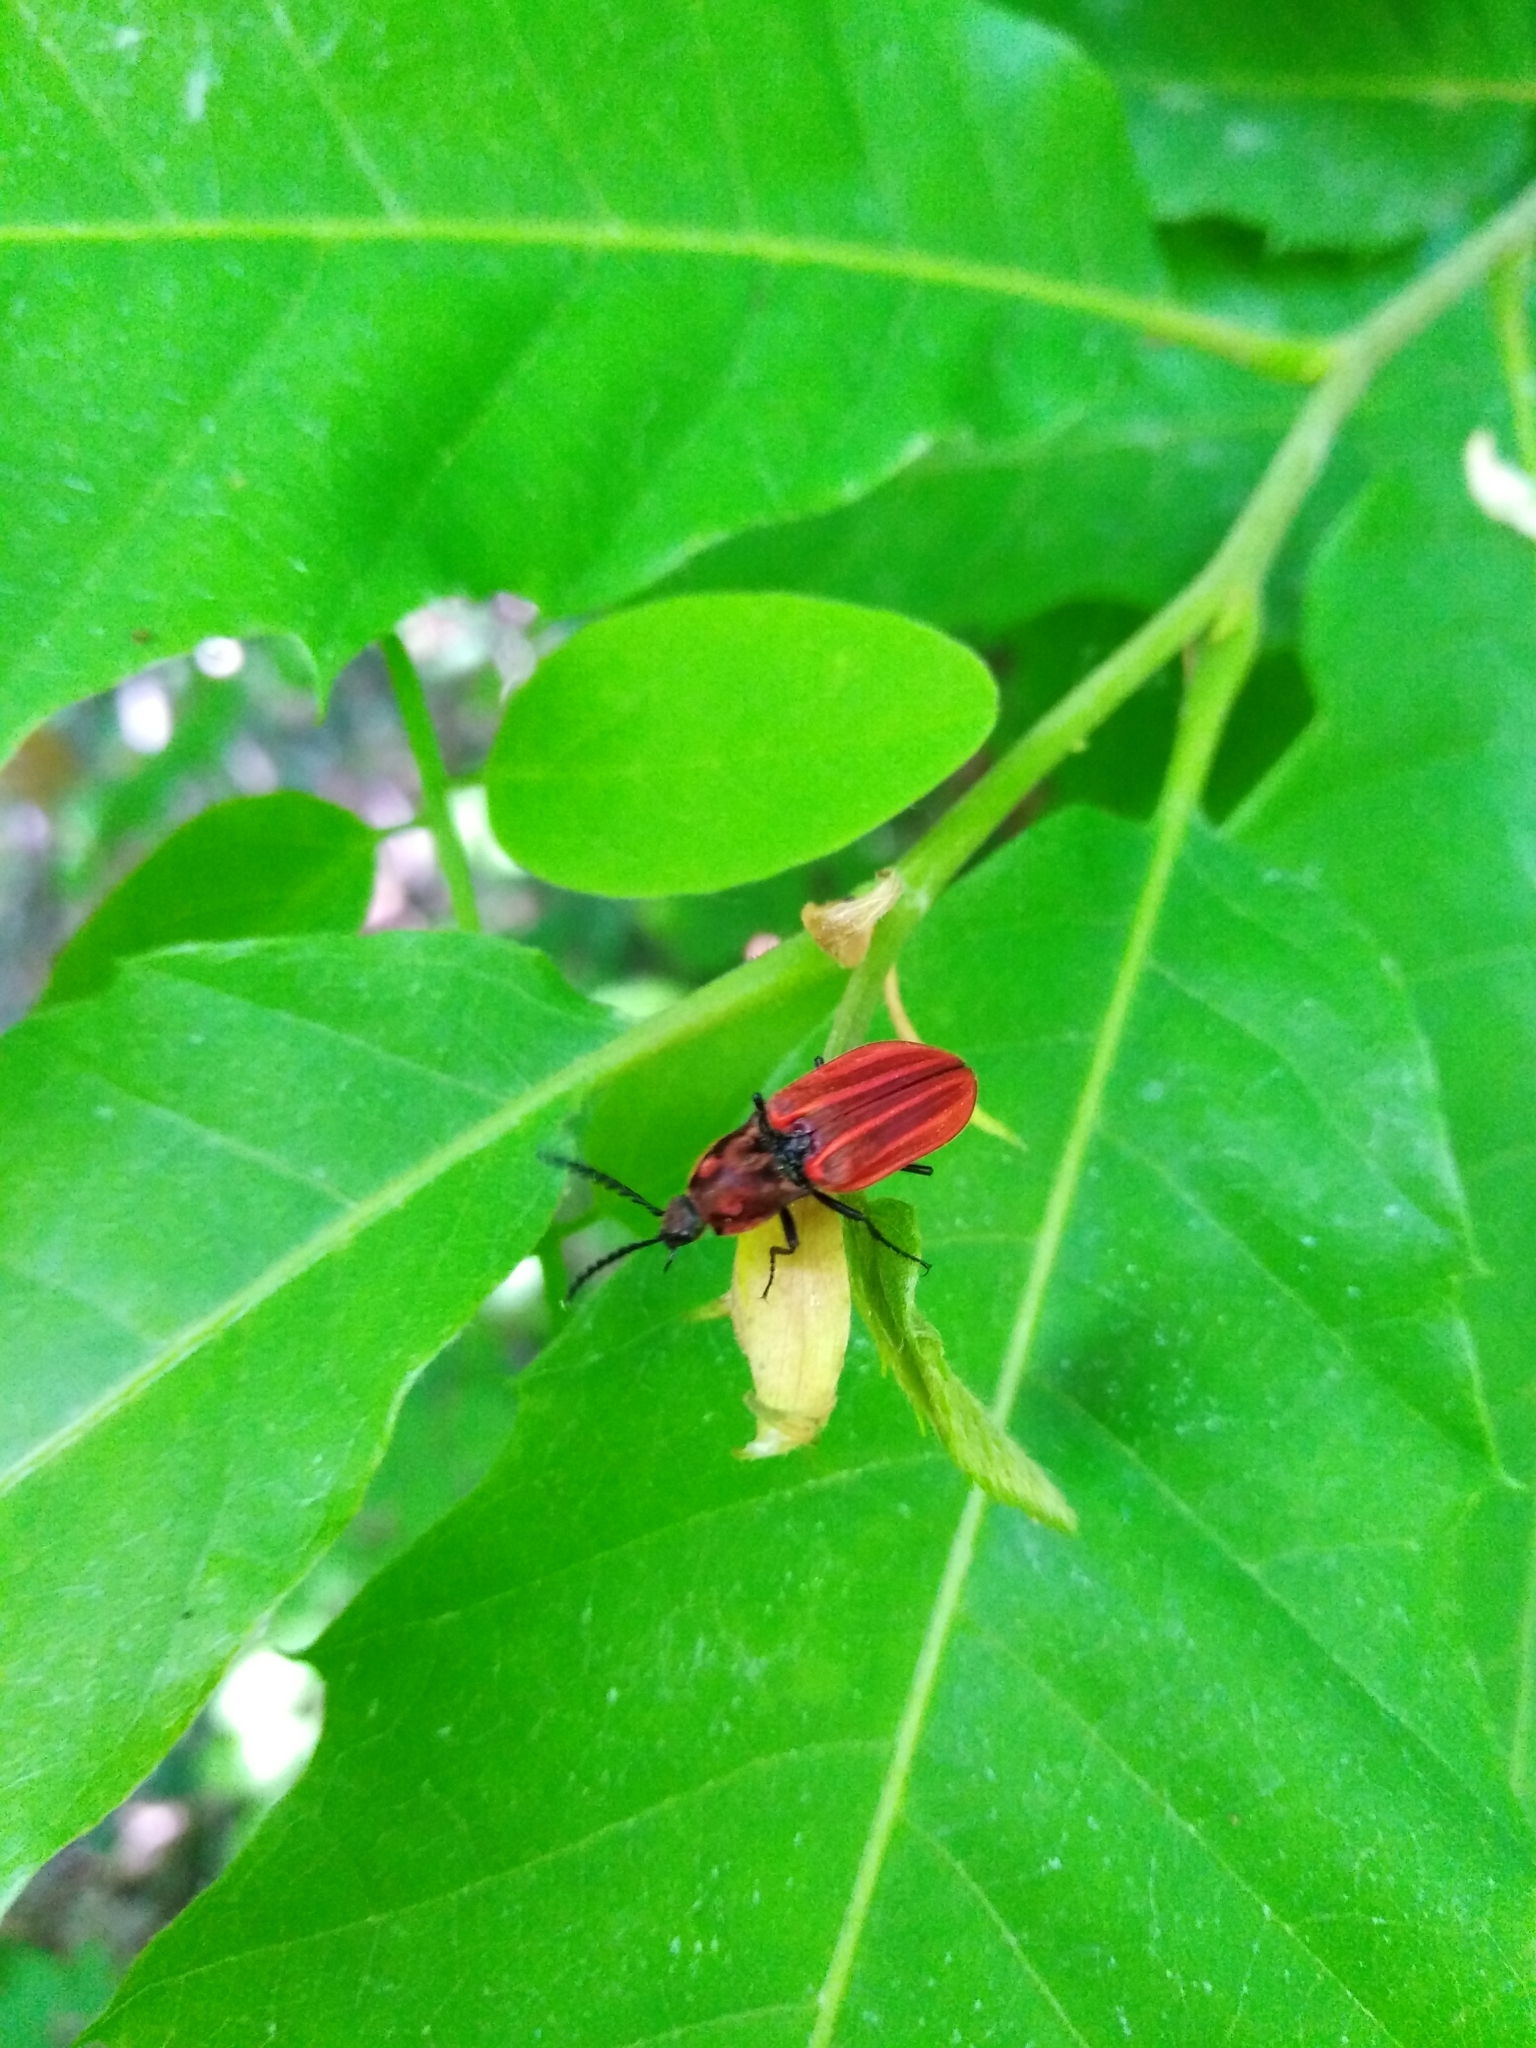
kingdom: Animalia
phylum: Arthropoda
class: Insecta
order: Coleoptera
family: Elateridae
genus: Anostirus
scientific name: Anostirus purpureus
